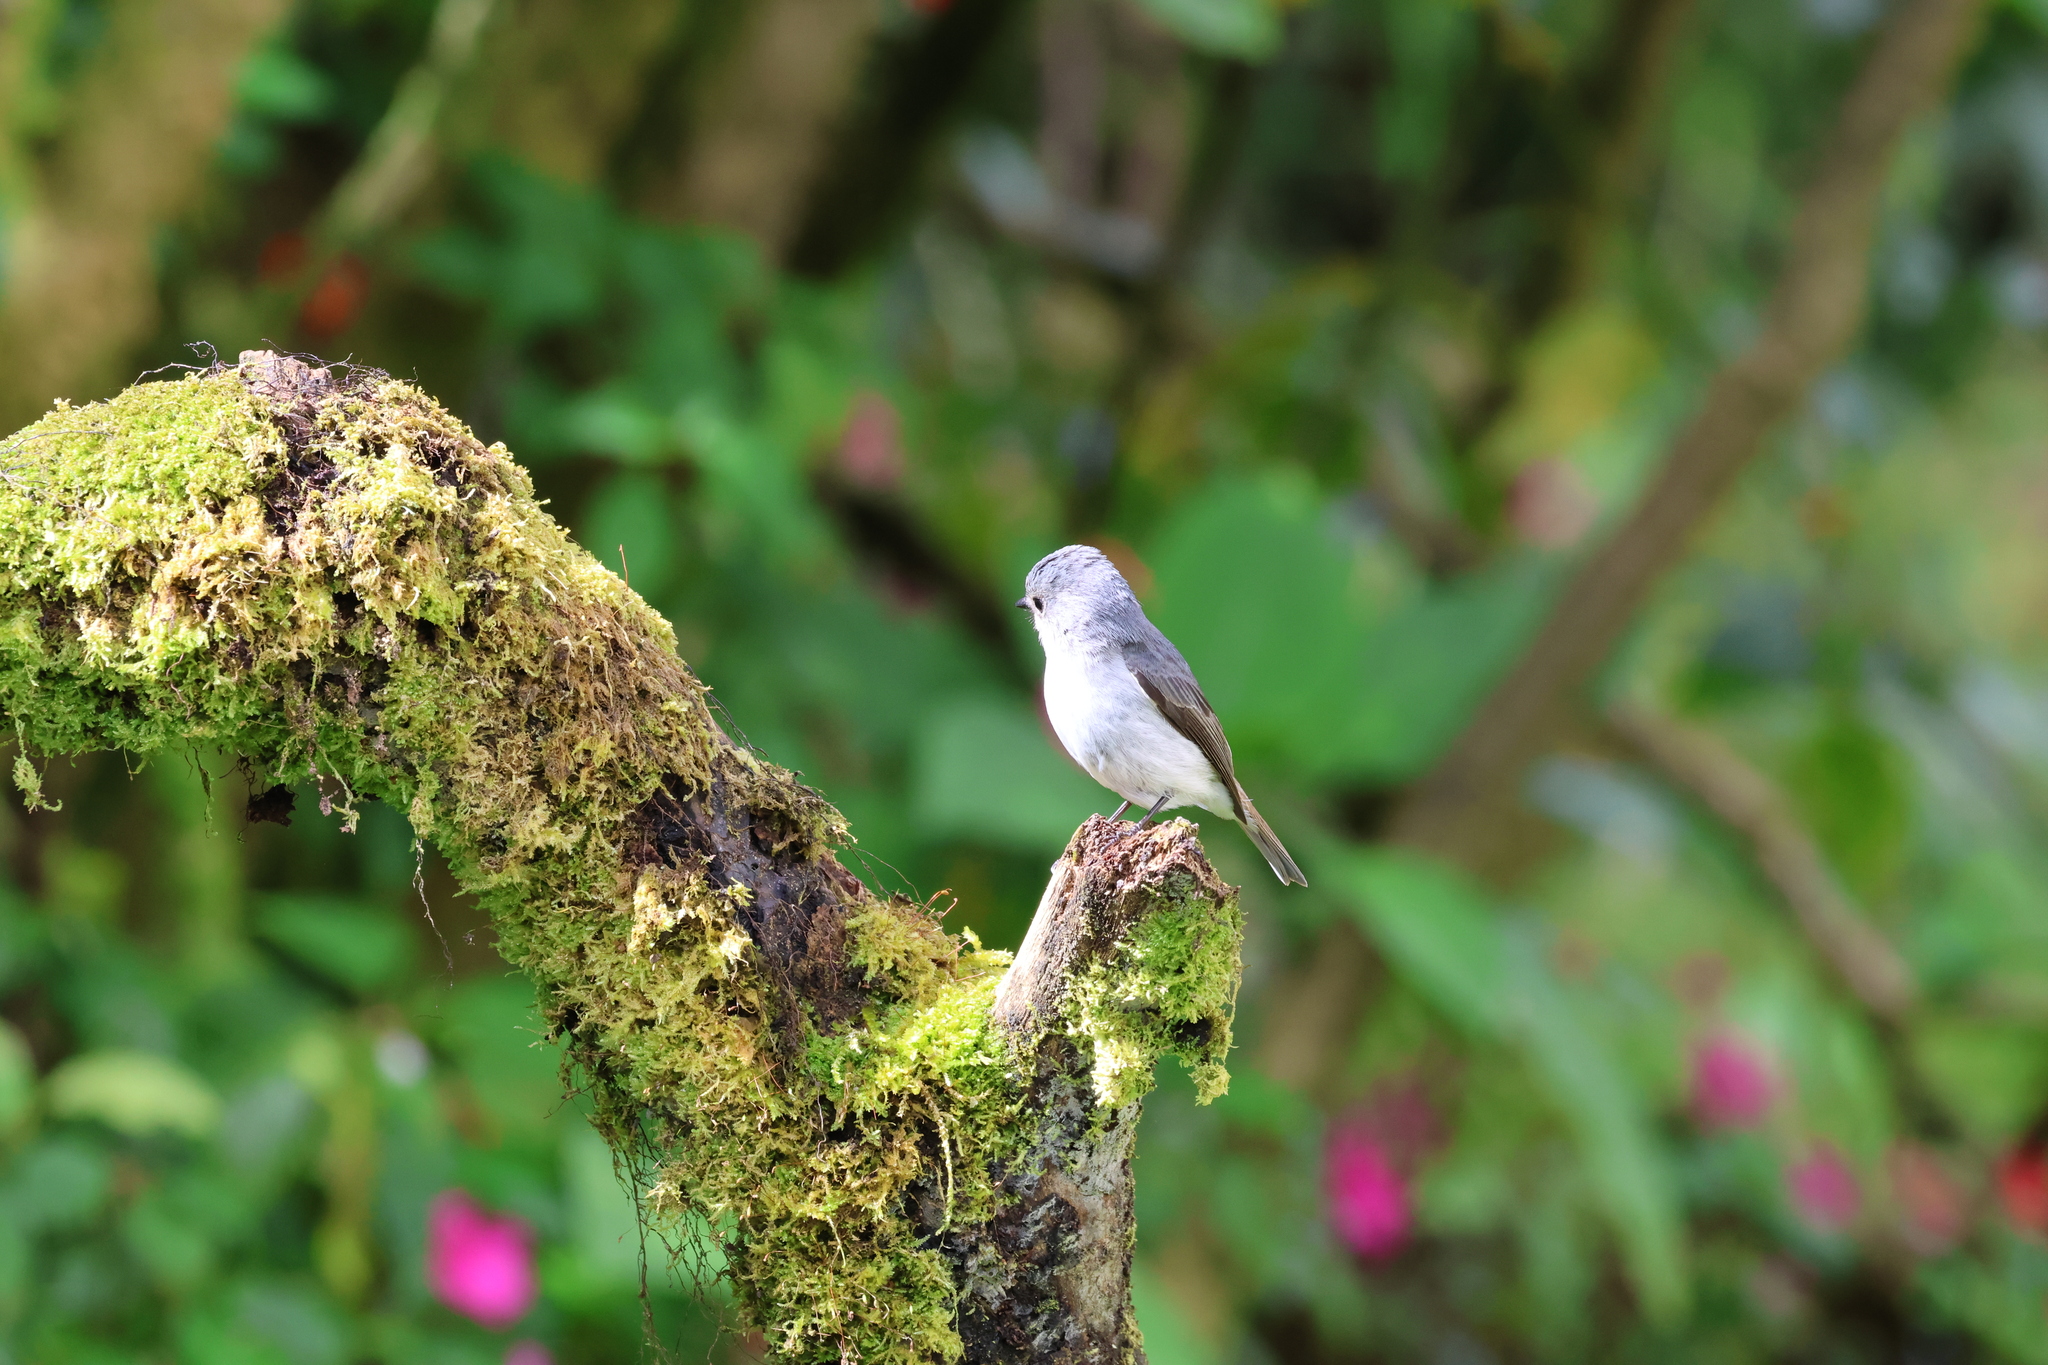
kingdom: Animalia
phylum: Chordata
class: Aves
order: Passeriformes
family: Muscicapidae
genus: Ficedula
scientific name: Ficedula westermanni
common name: Little pied flycatcher
